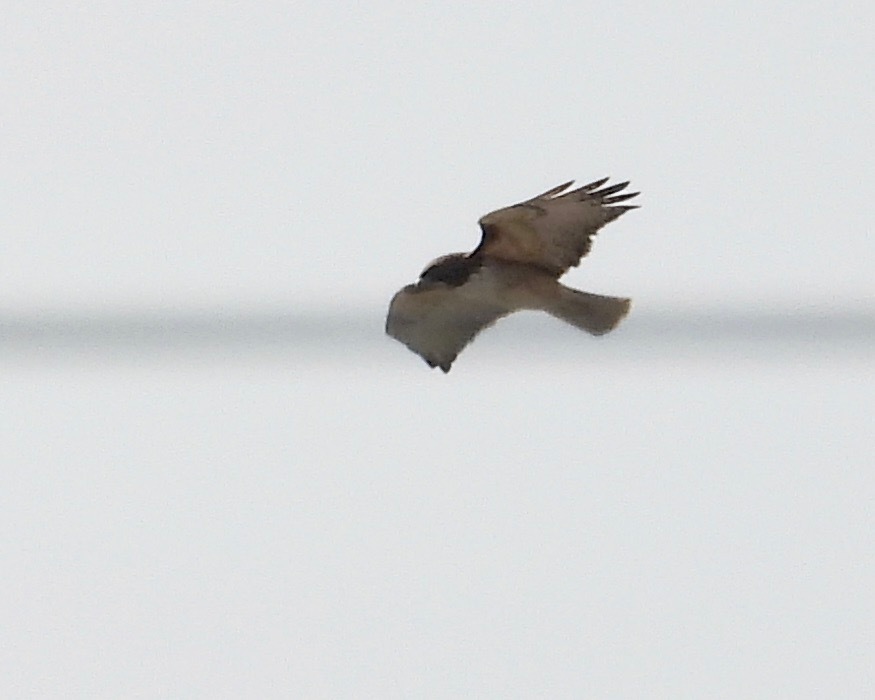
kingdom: Animalia
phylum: Chordata
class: Aves
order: Accipitriformes
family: Accipitridae
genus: Buteo
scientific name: Buteo jamaicensis
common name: Red-tailed hawk
